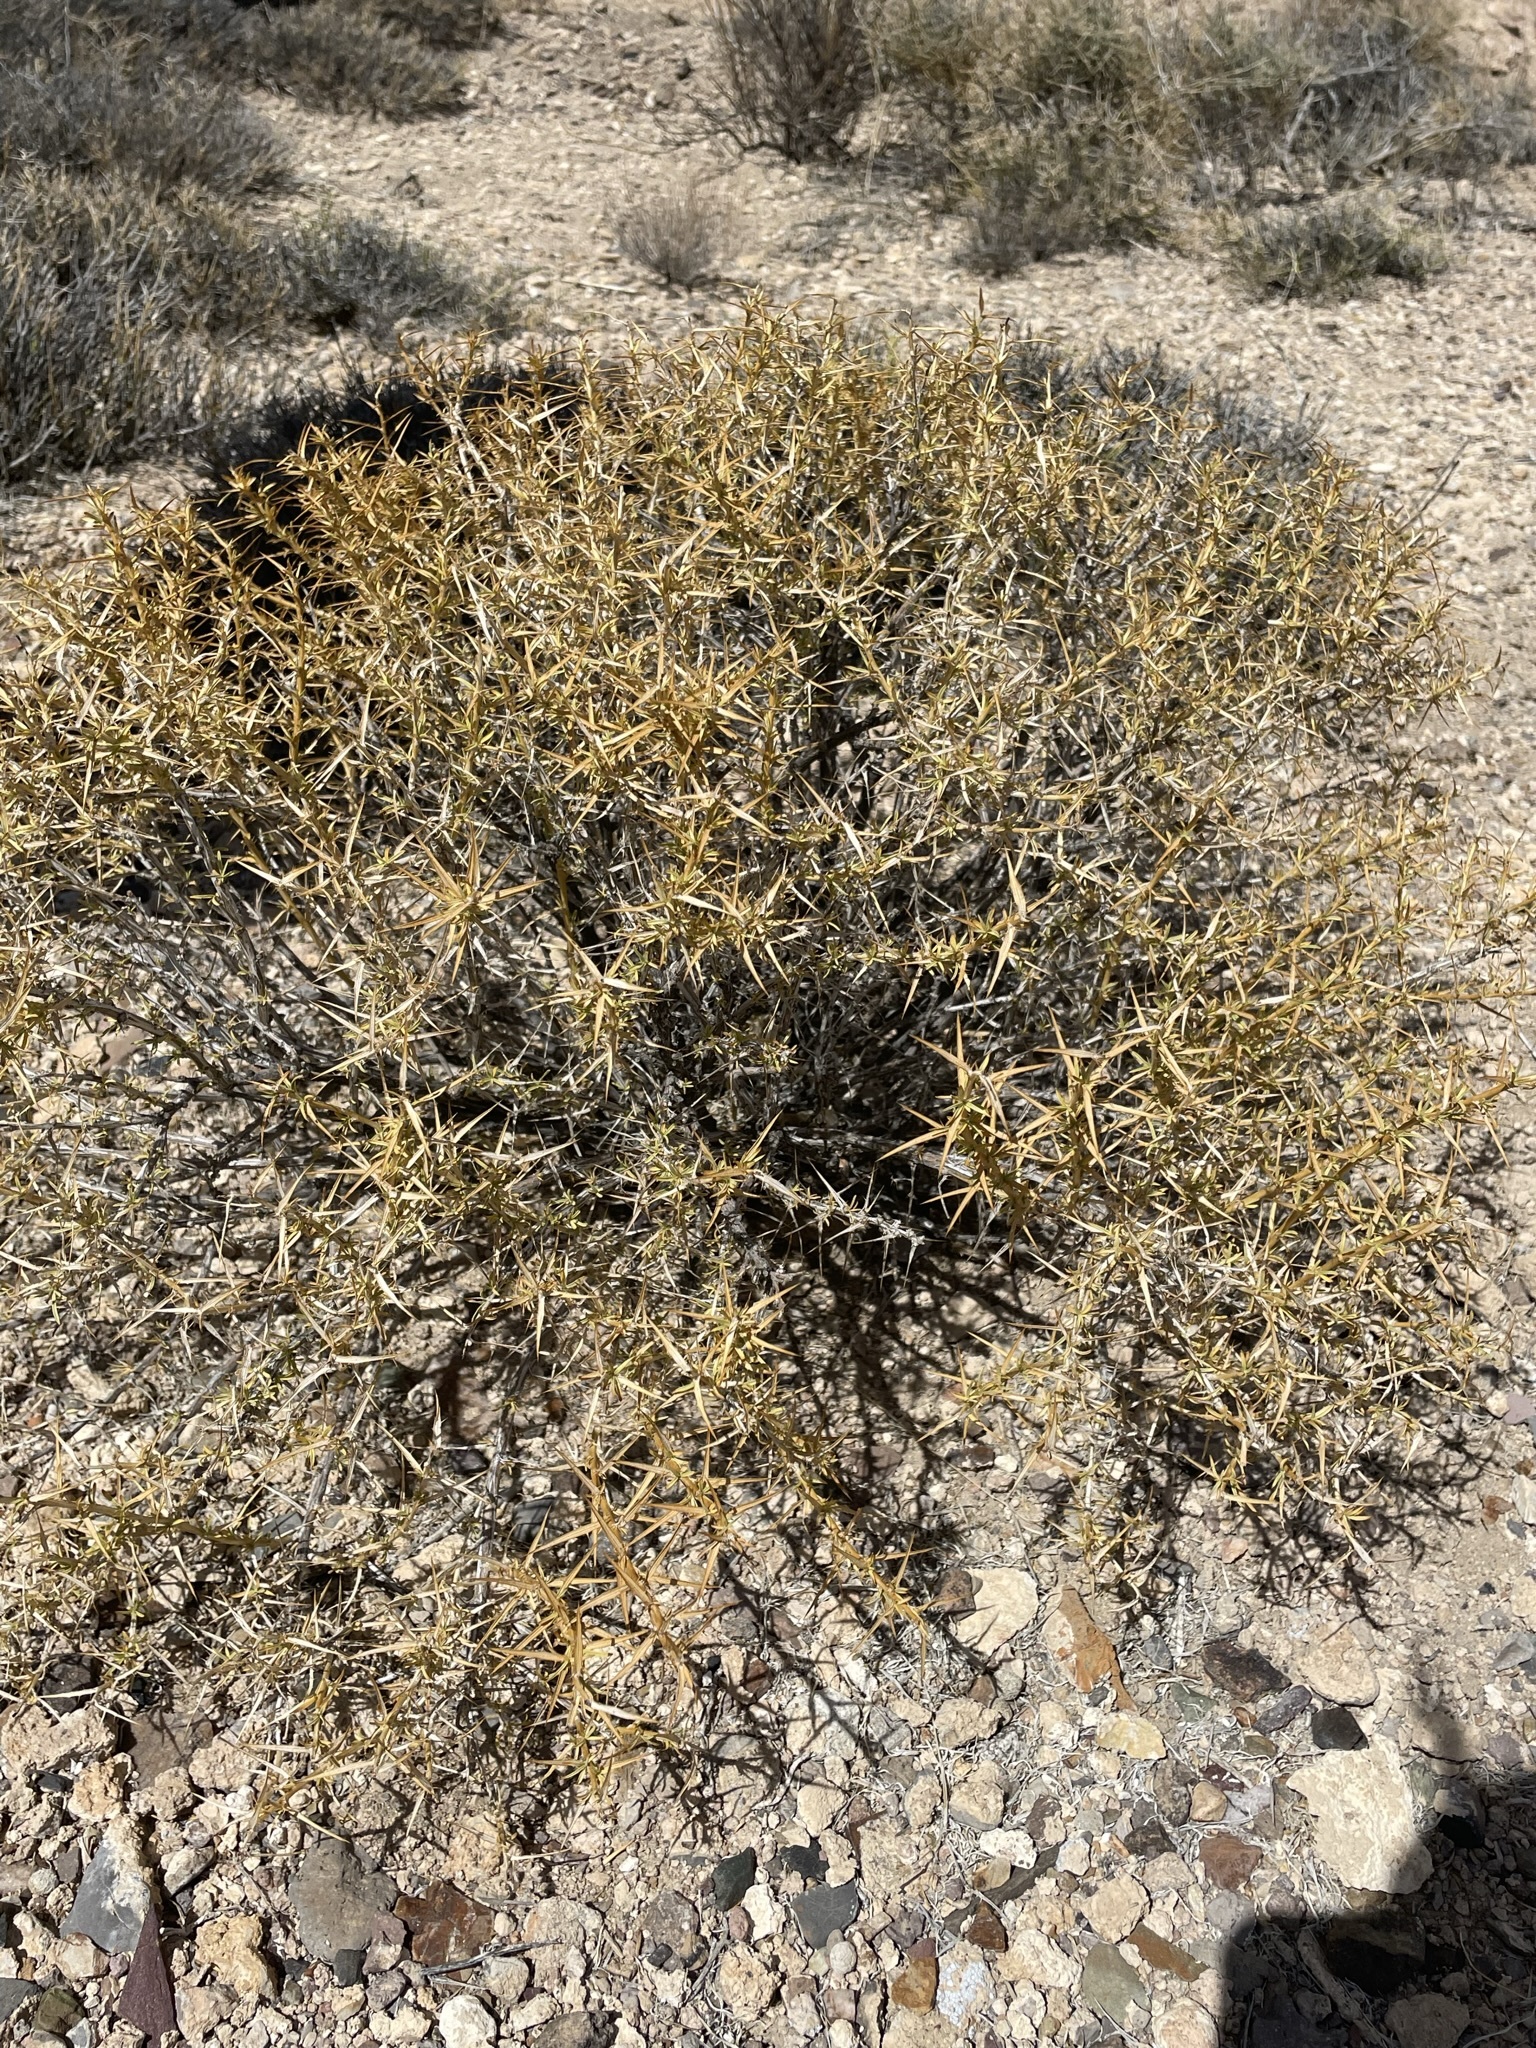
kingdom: Plantae
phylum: Tracheophyta
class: Magnoliopsida
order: Asterales
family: Asteraceae
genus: Hecastocleis
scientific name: Hecastocleis shockleyi
